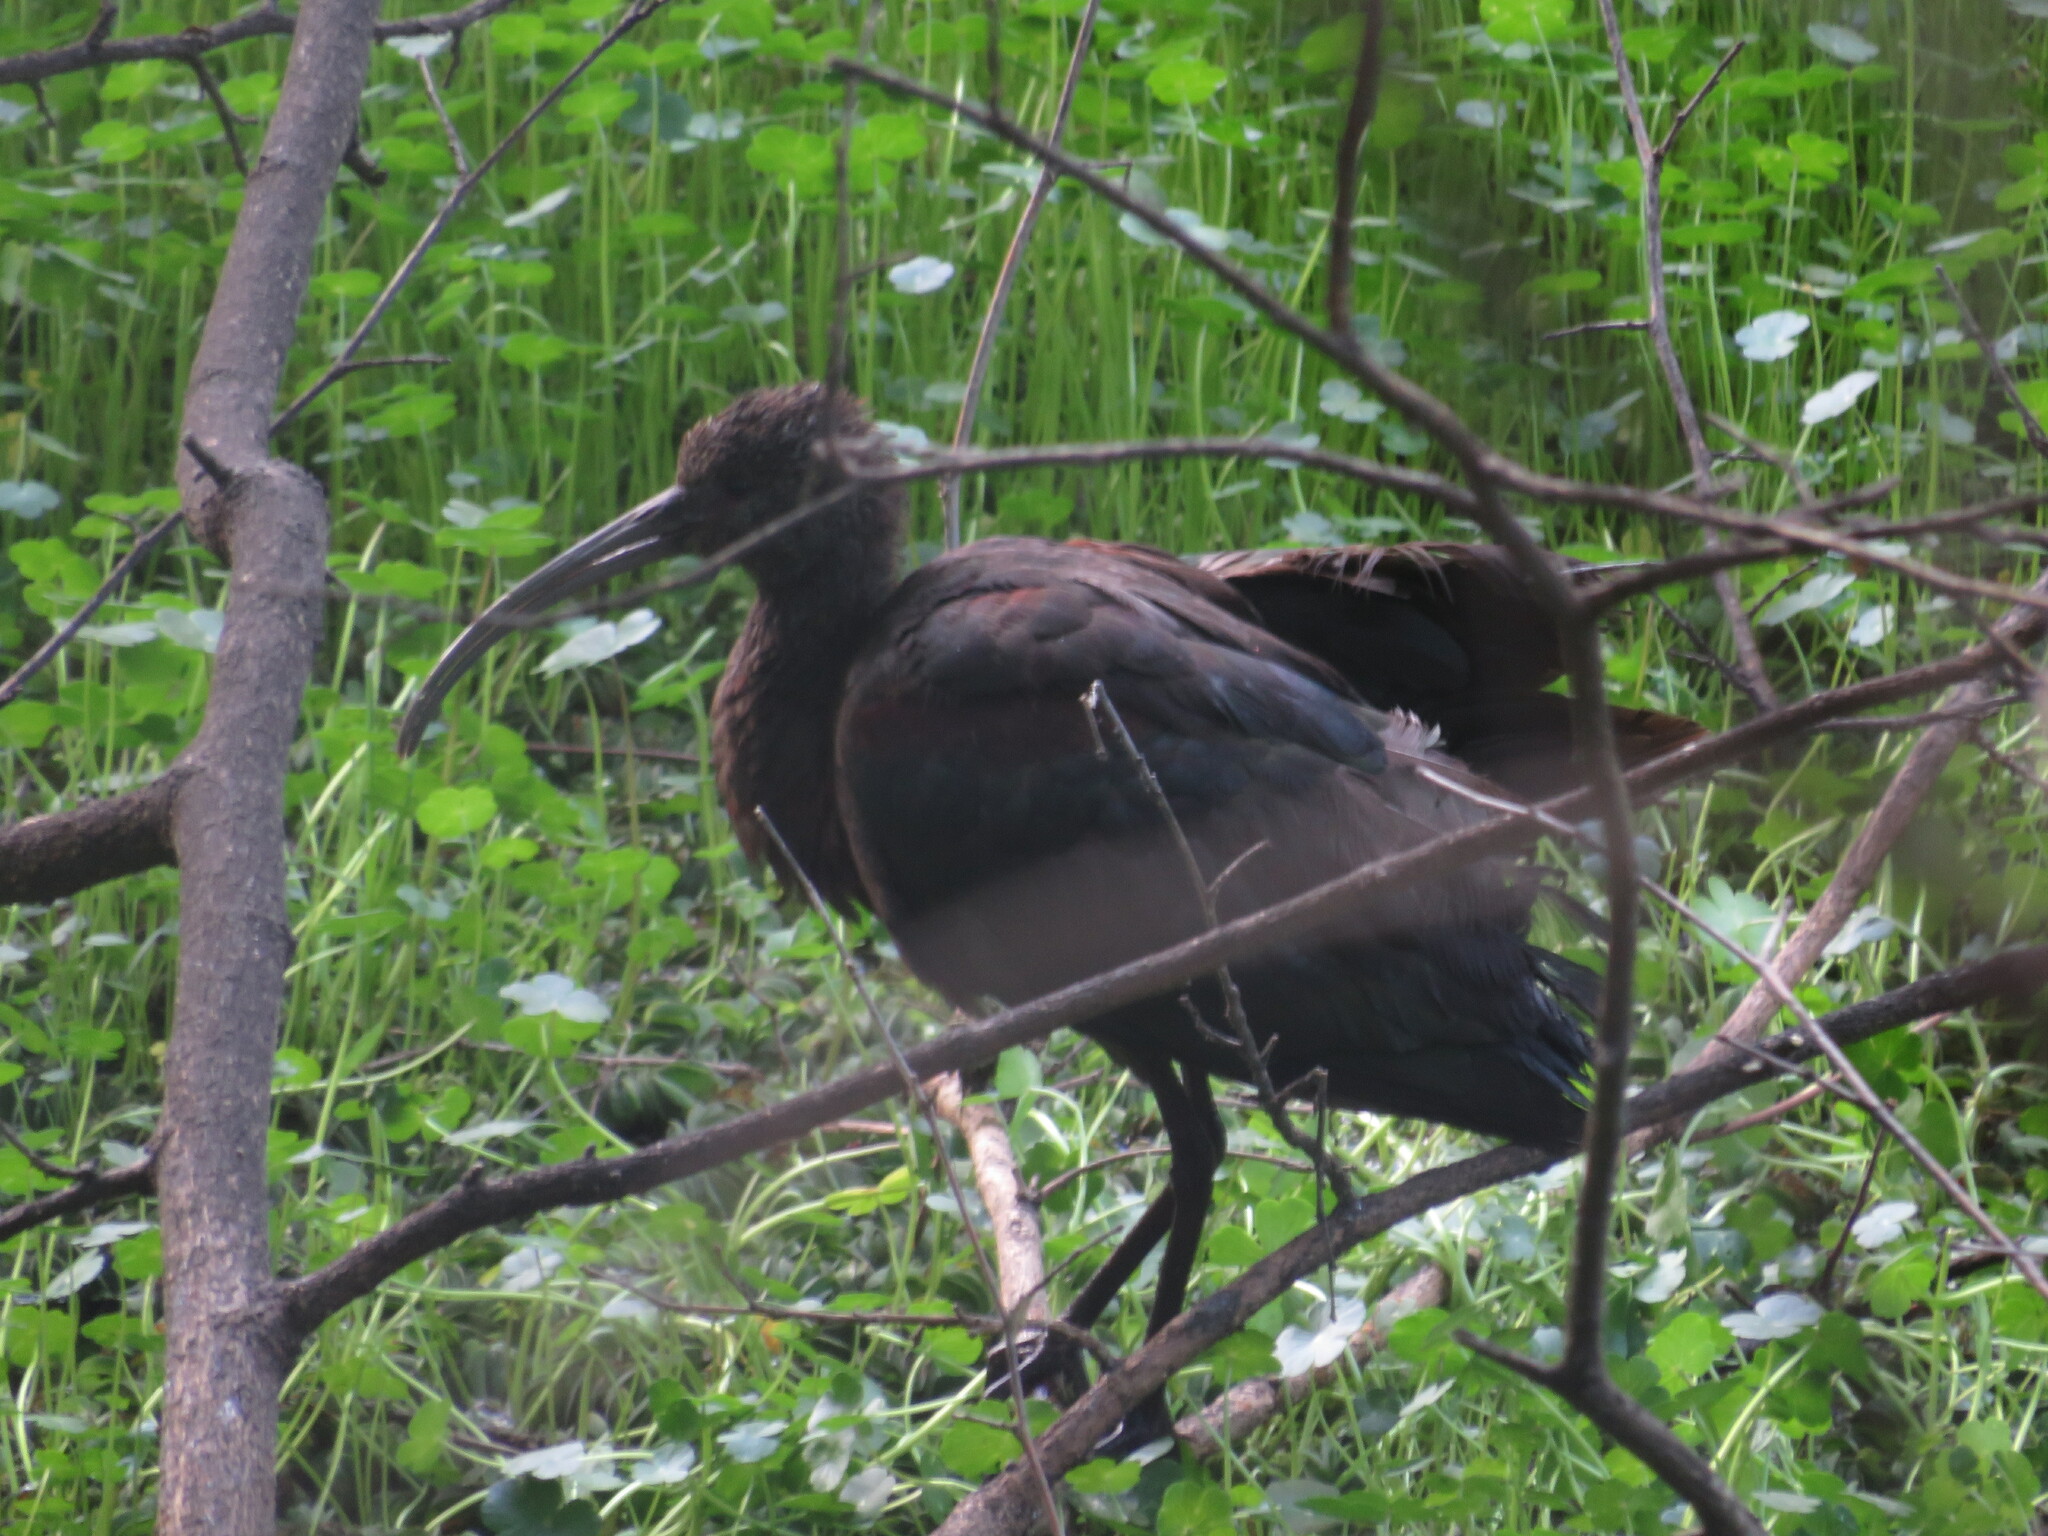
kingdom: Animalia
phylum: Chordata
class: Aves
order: Pelecaniformes
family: Threskiornithidae
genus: Plegadis
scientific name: Plegadis chihi
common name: White-faced ibis
